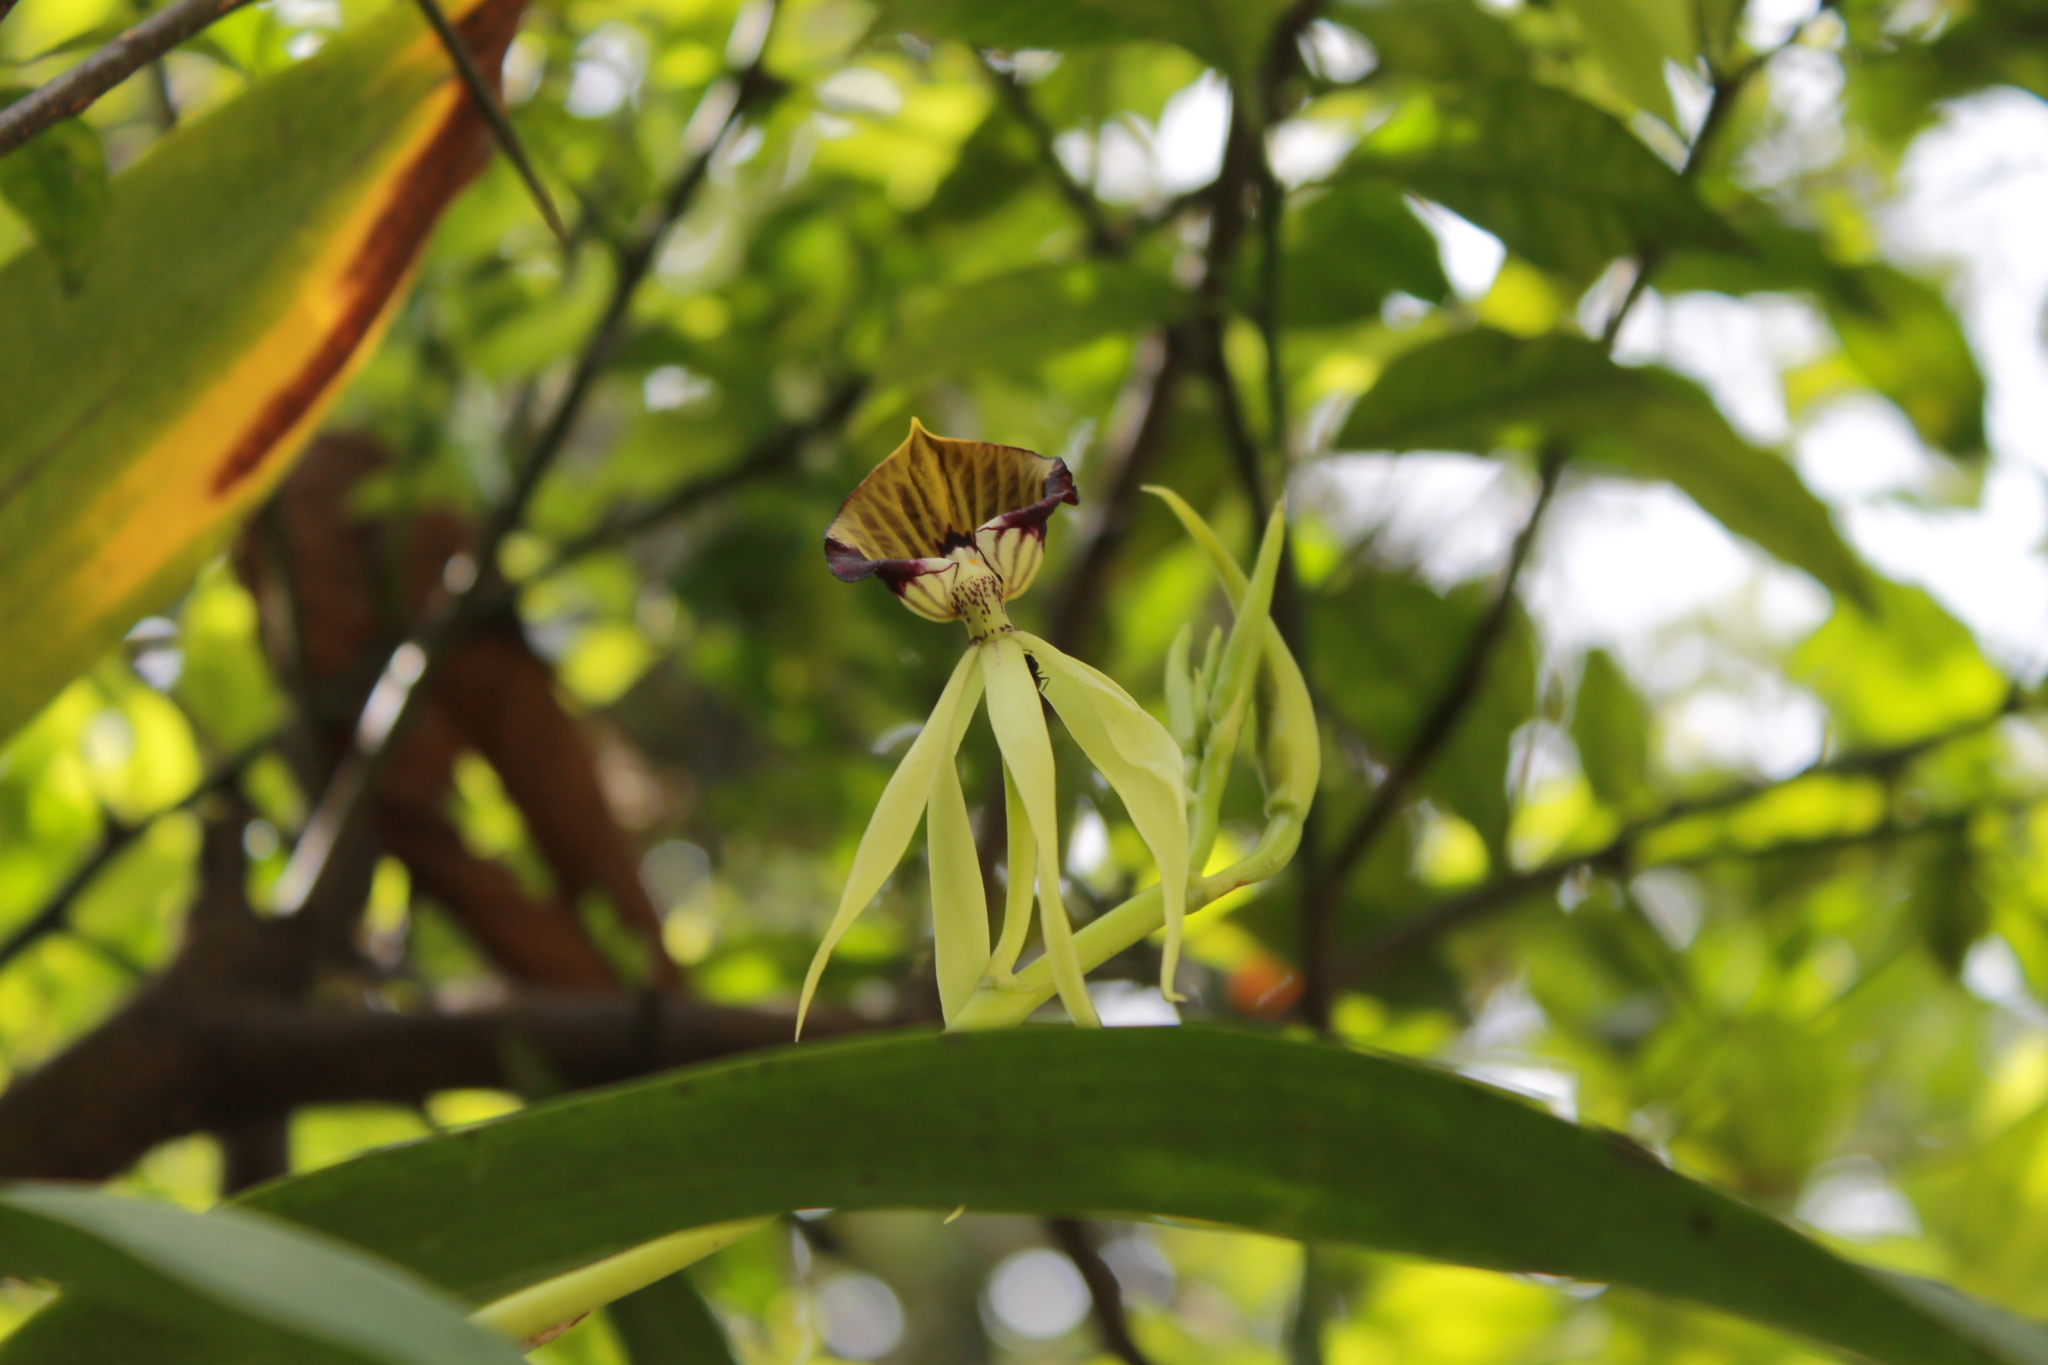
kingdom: Plantae
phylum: Tracheophyta
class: Liliopsida
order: Asparagales
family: Orchidaceae
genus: Prosthechea
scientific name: Prosthechea cochleata
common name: Clamshell orchid
